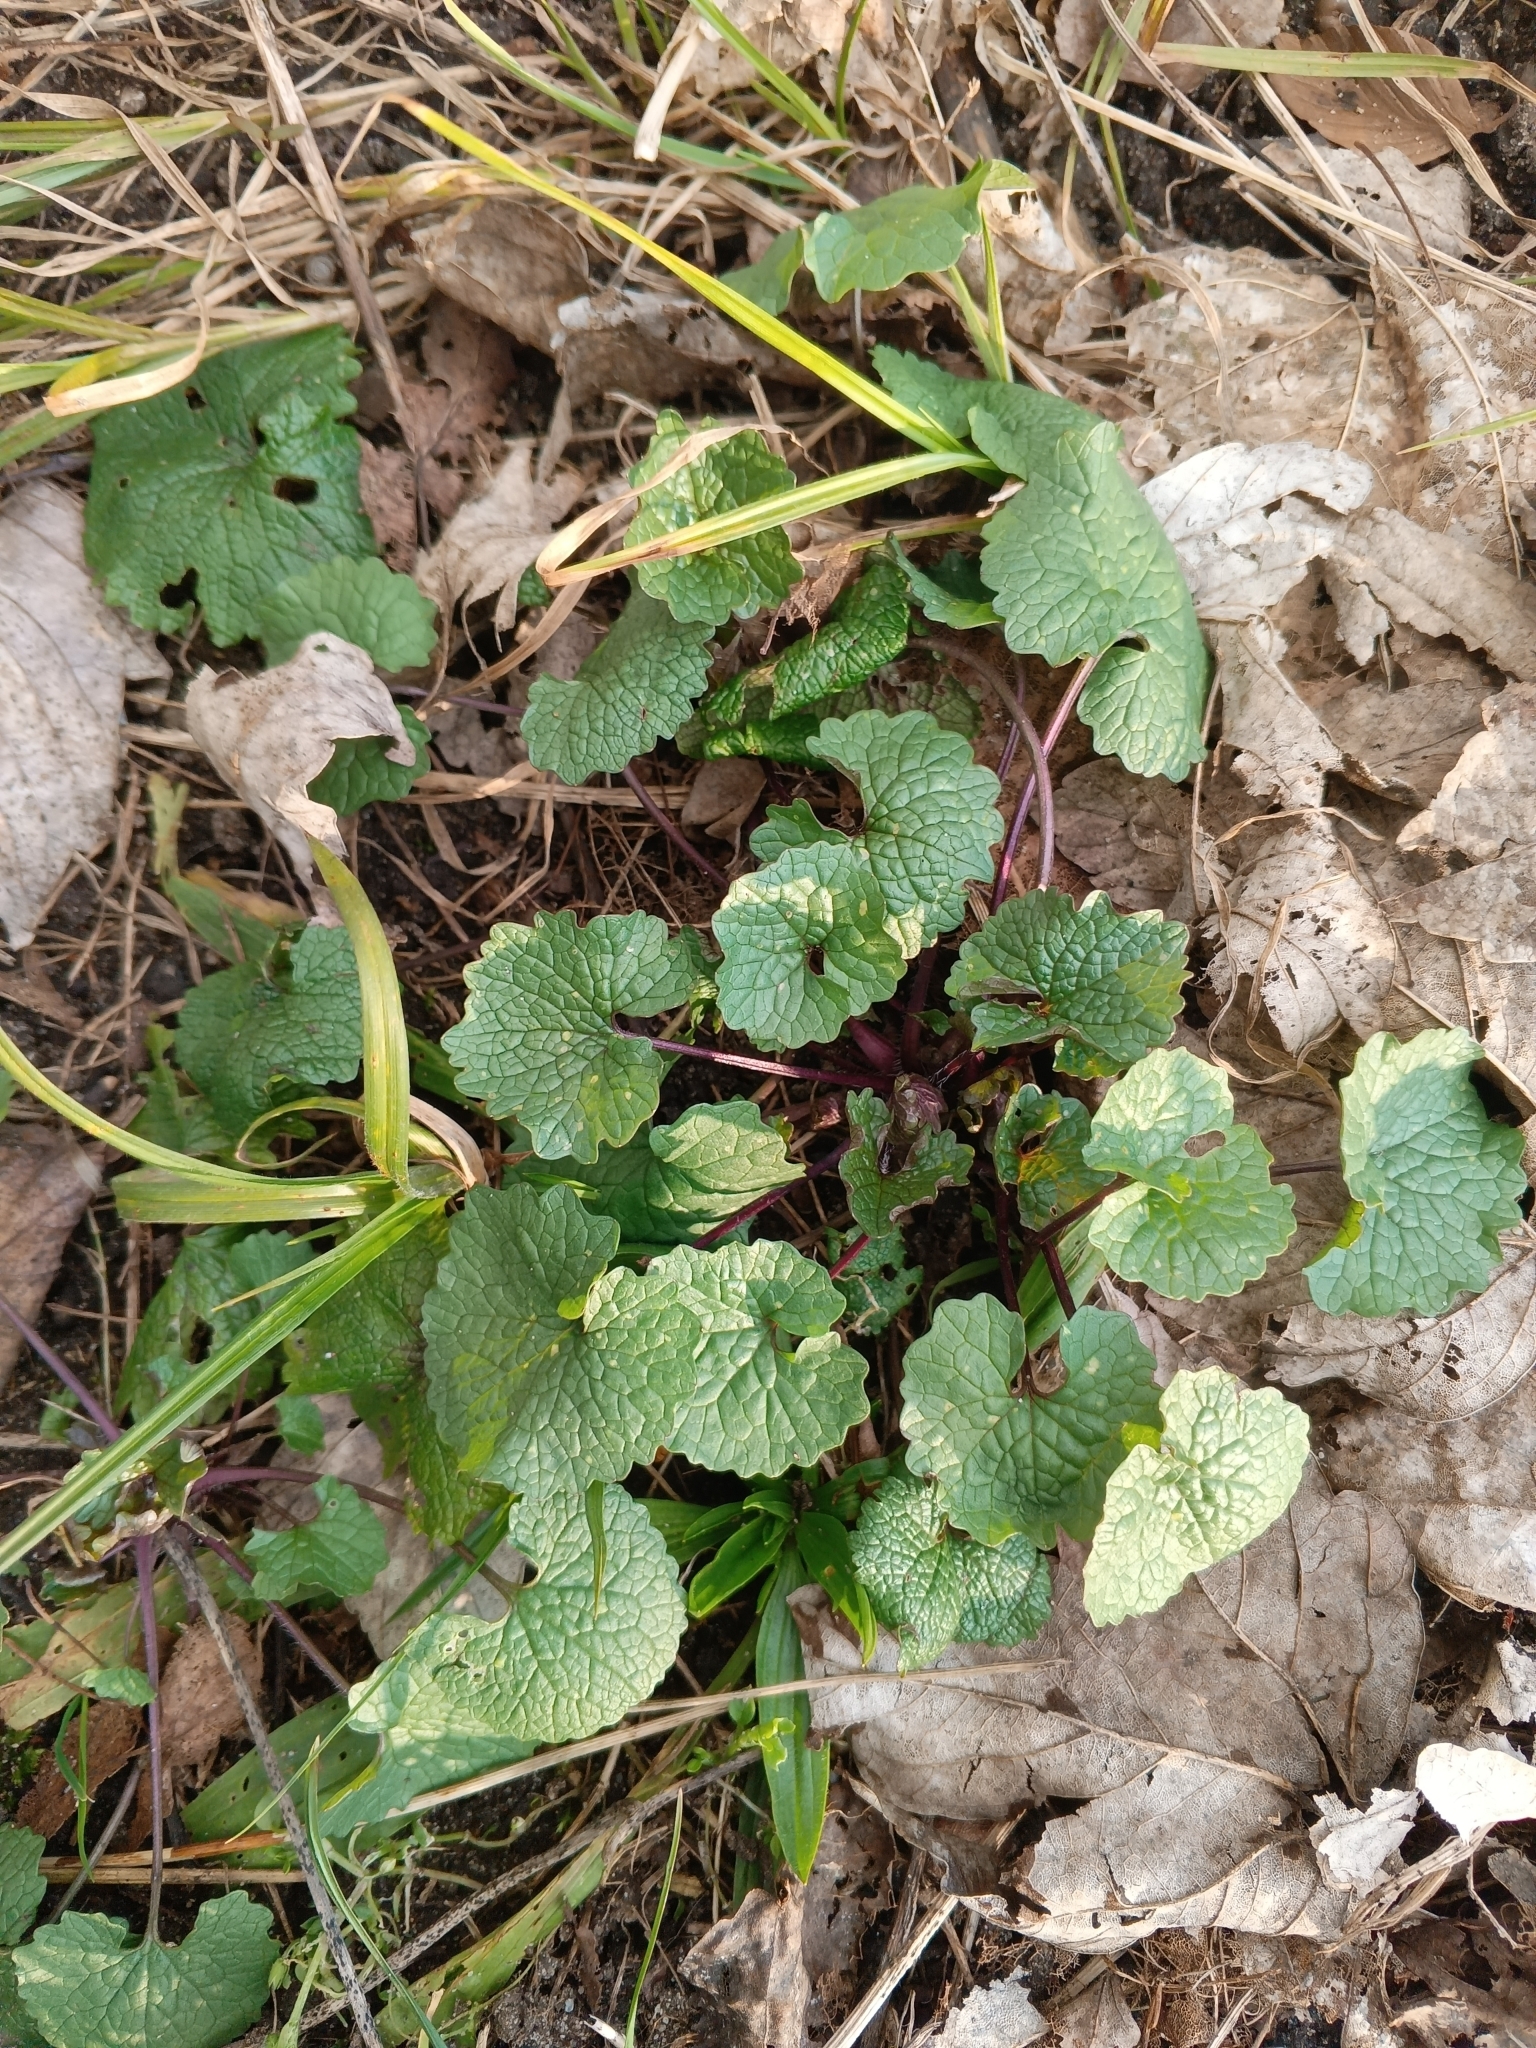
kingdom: Plantae
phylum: Tracheophyta
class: Magnoliopsida
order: Brassicales
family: Brassicaceae
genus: Alliaria
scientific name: Alliaria petiolata
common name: Garlic mustard
